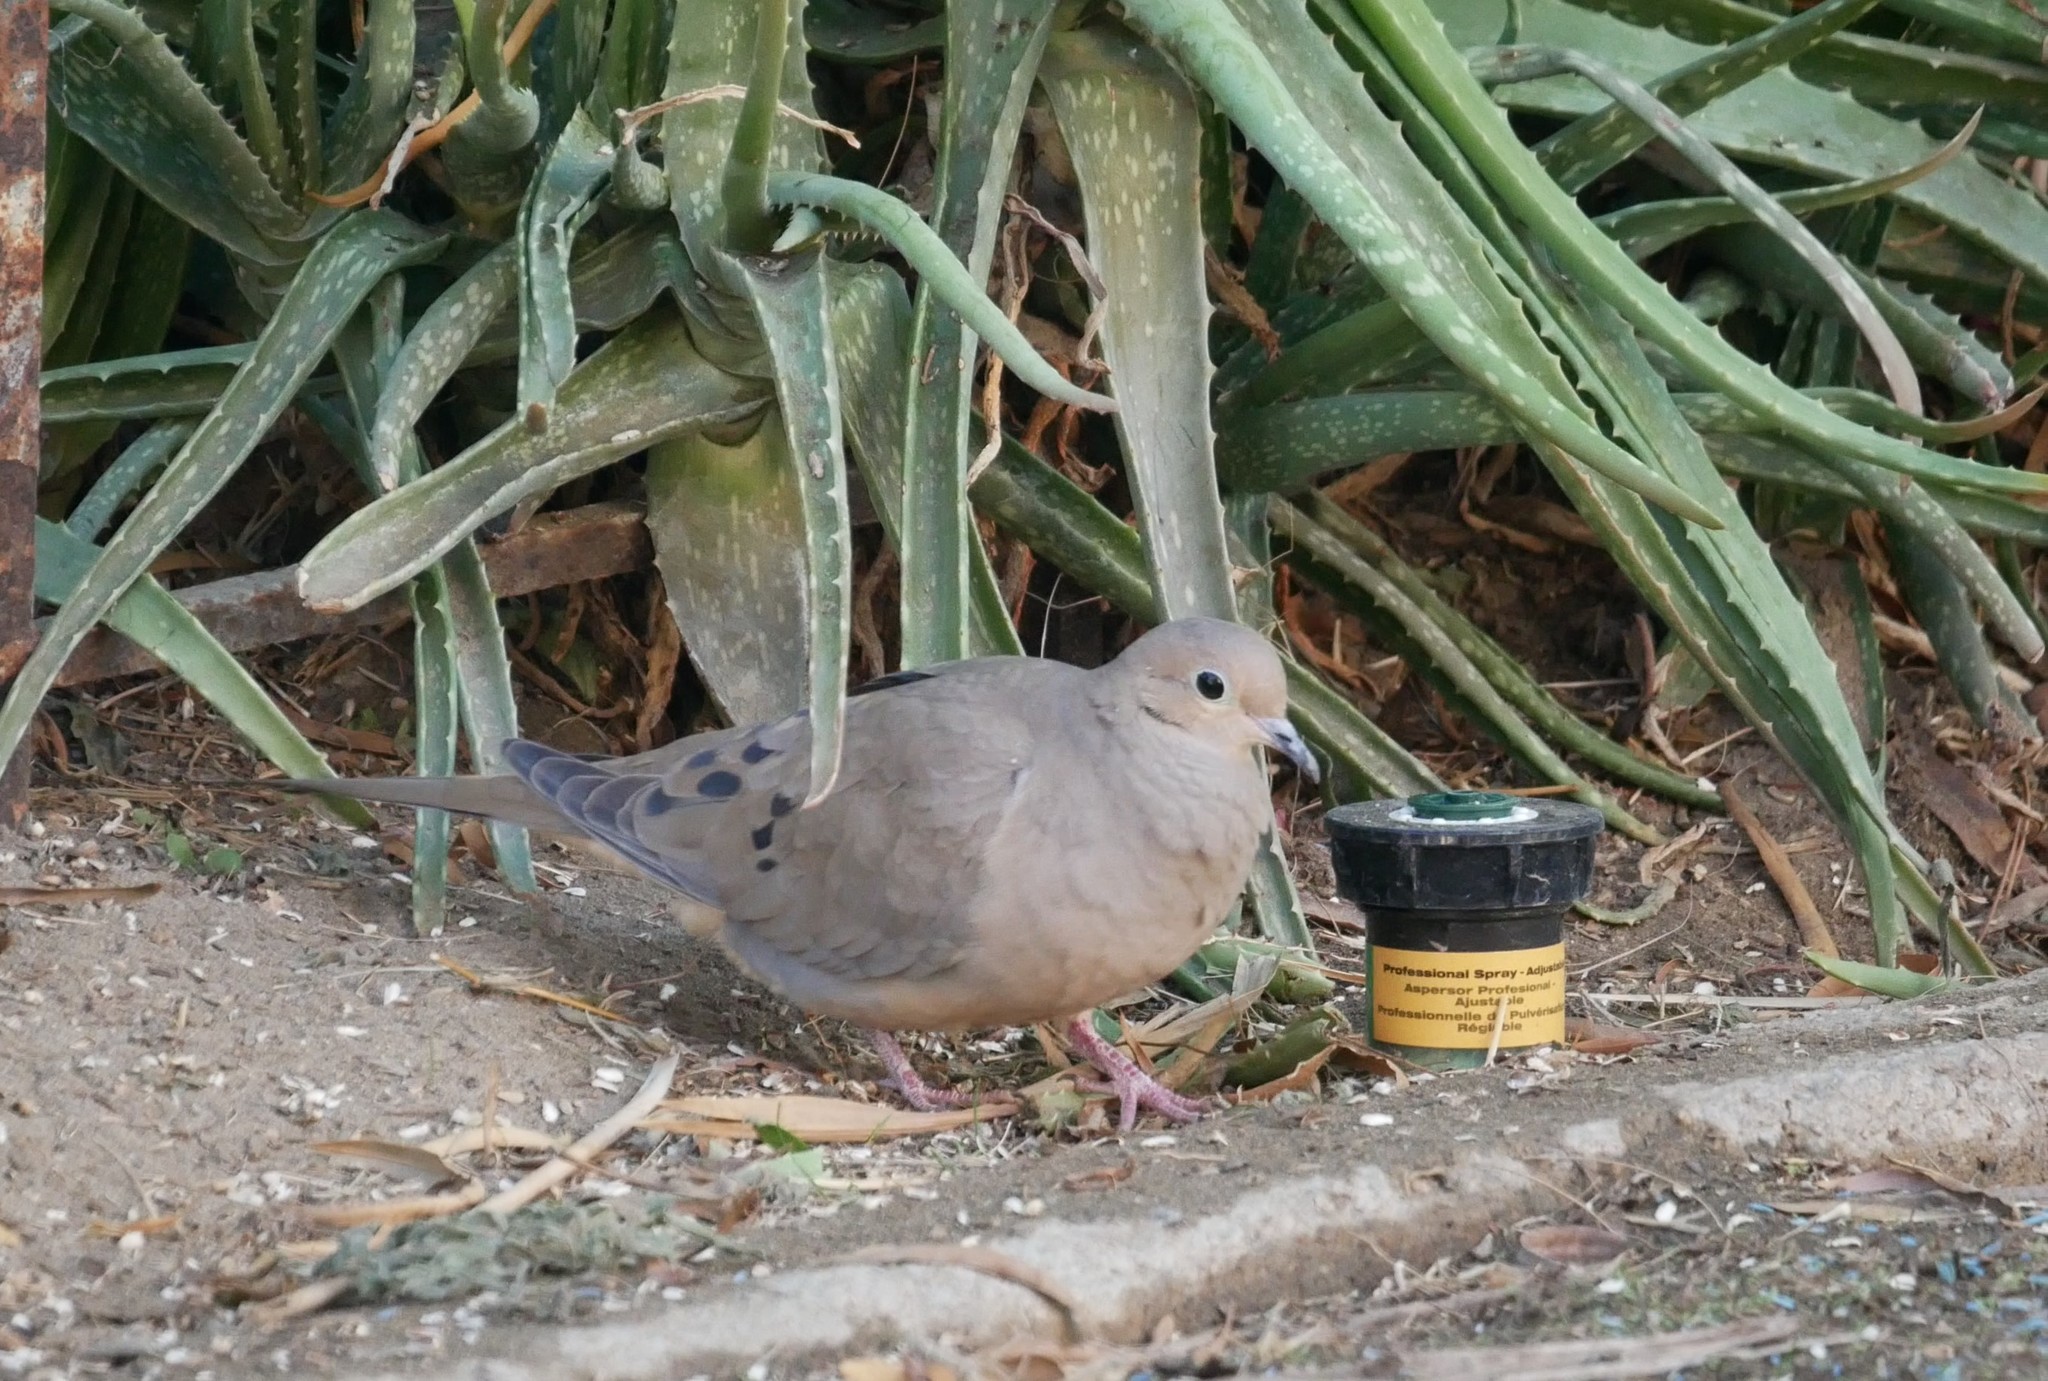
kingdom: Animalia
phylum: Chordata
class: Aves
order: Columbiformes
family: Columbidae
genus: Zenaida
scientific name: Zenaida macroura
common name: Mourning dove
